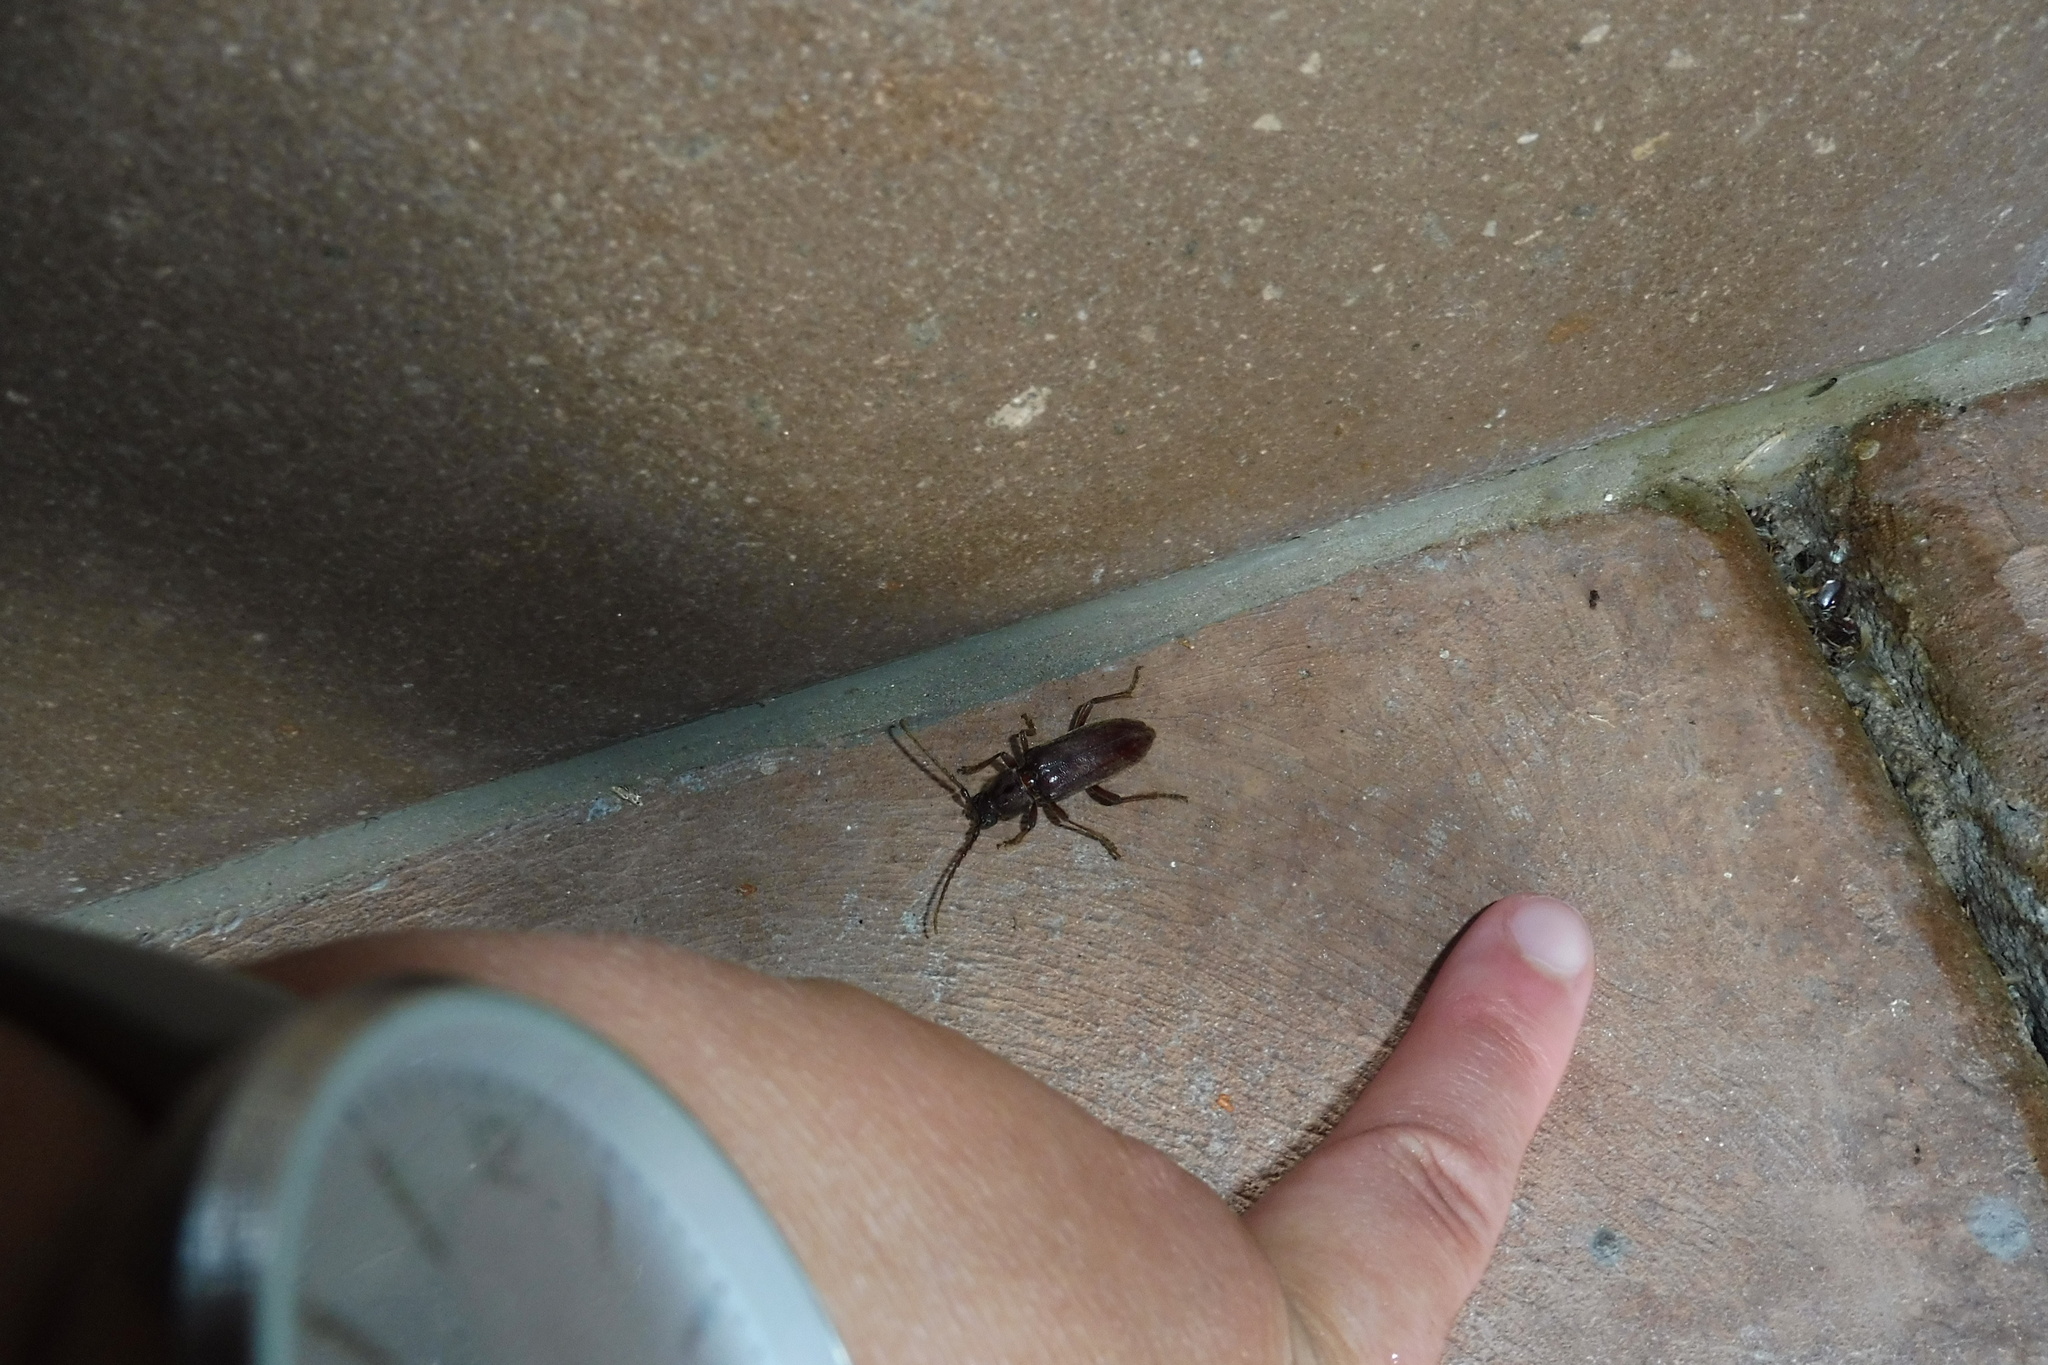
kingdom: Animalia
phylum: Arthropoda
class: Insecta
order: Coleoptera
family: Cerambycidae
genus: Cacophrissus
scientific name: Cacophrissus pauper
